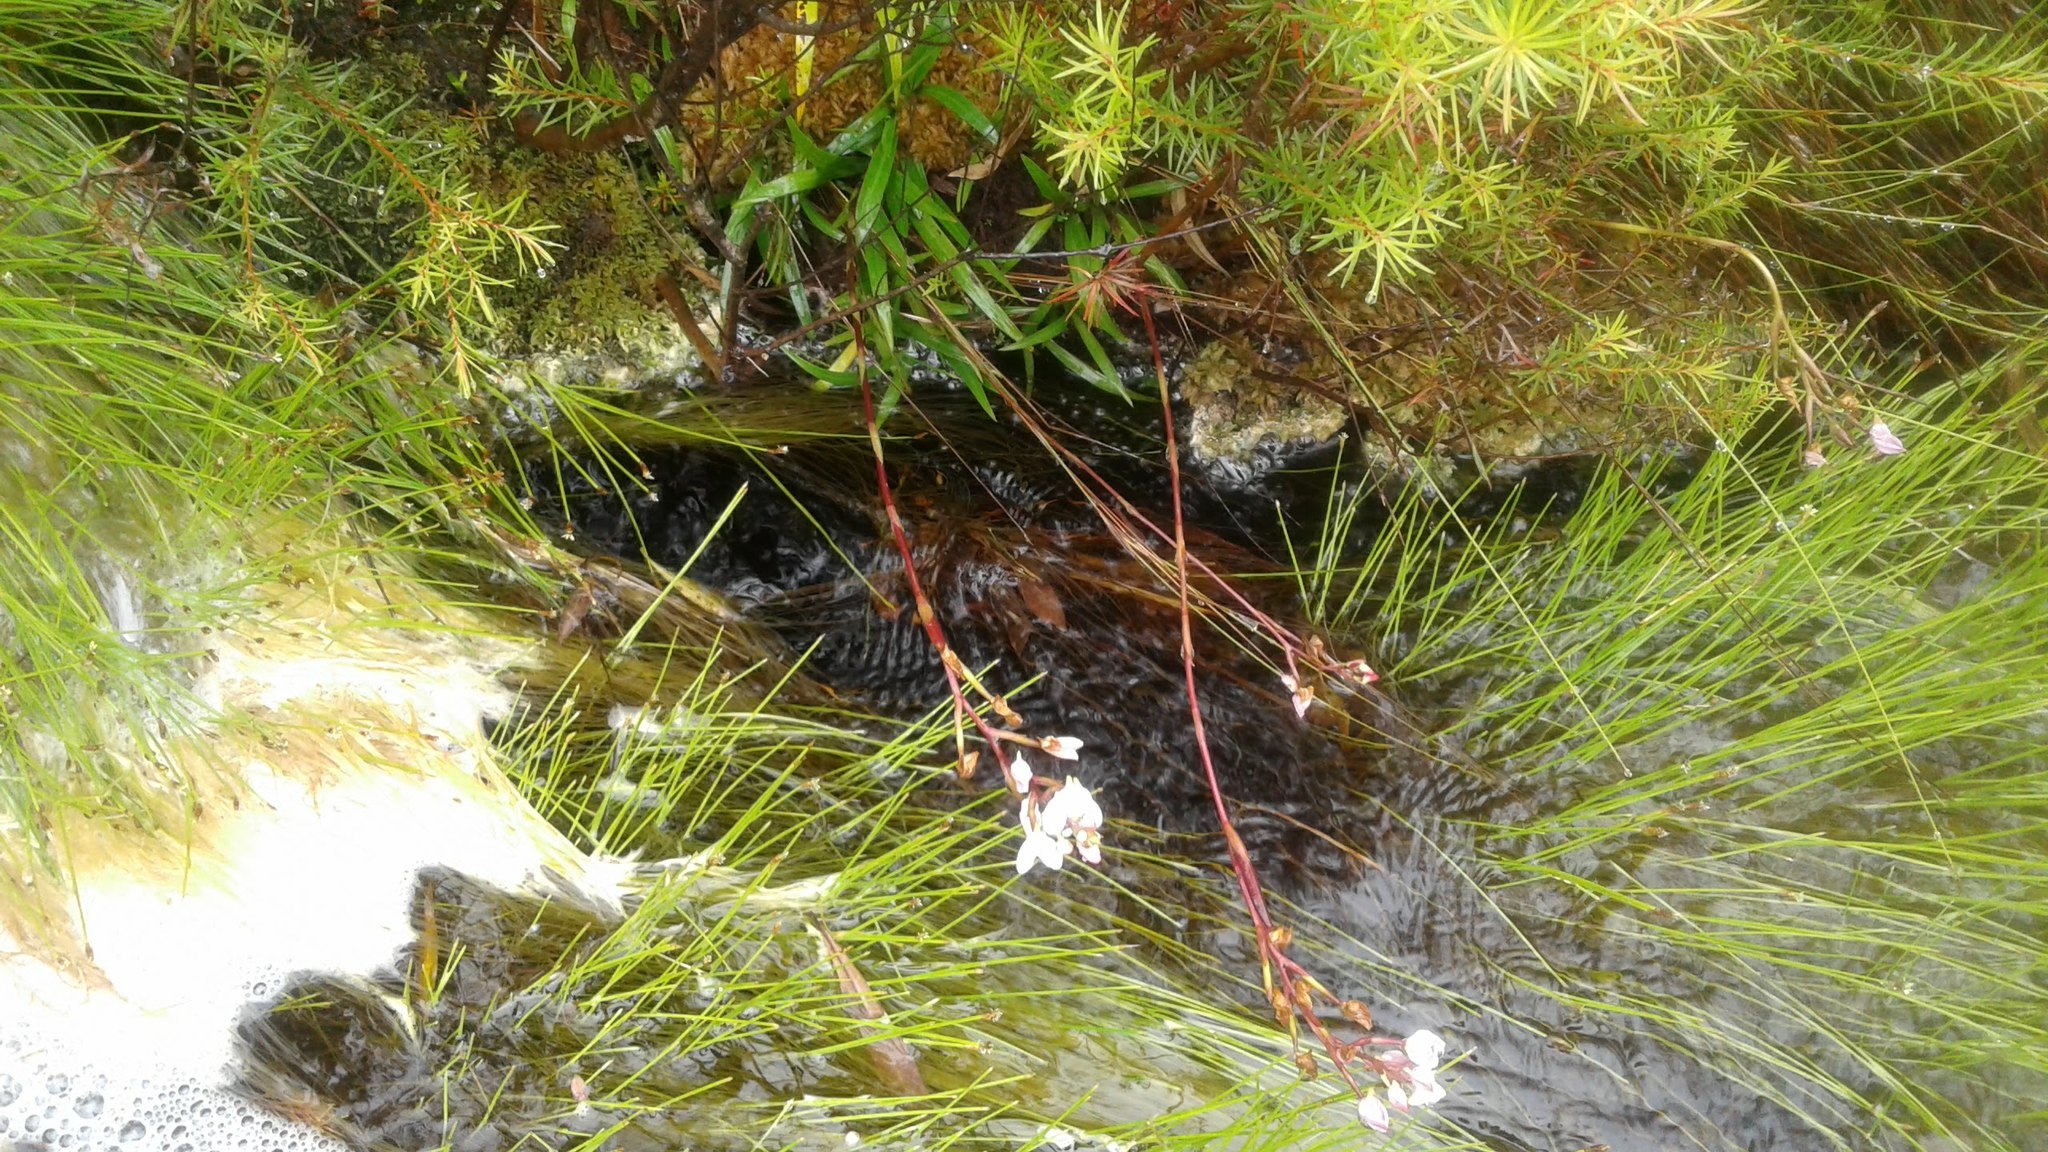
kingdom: Plantae
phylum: Tracheophyta
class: Liliopsida
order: Poales
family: Cyperaceae
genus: Isolepis
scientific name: Isolepis digitata
